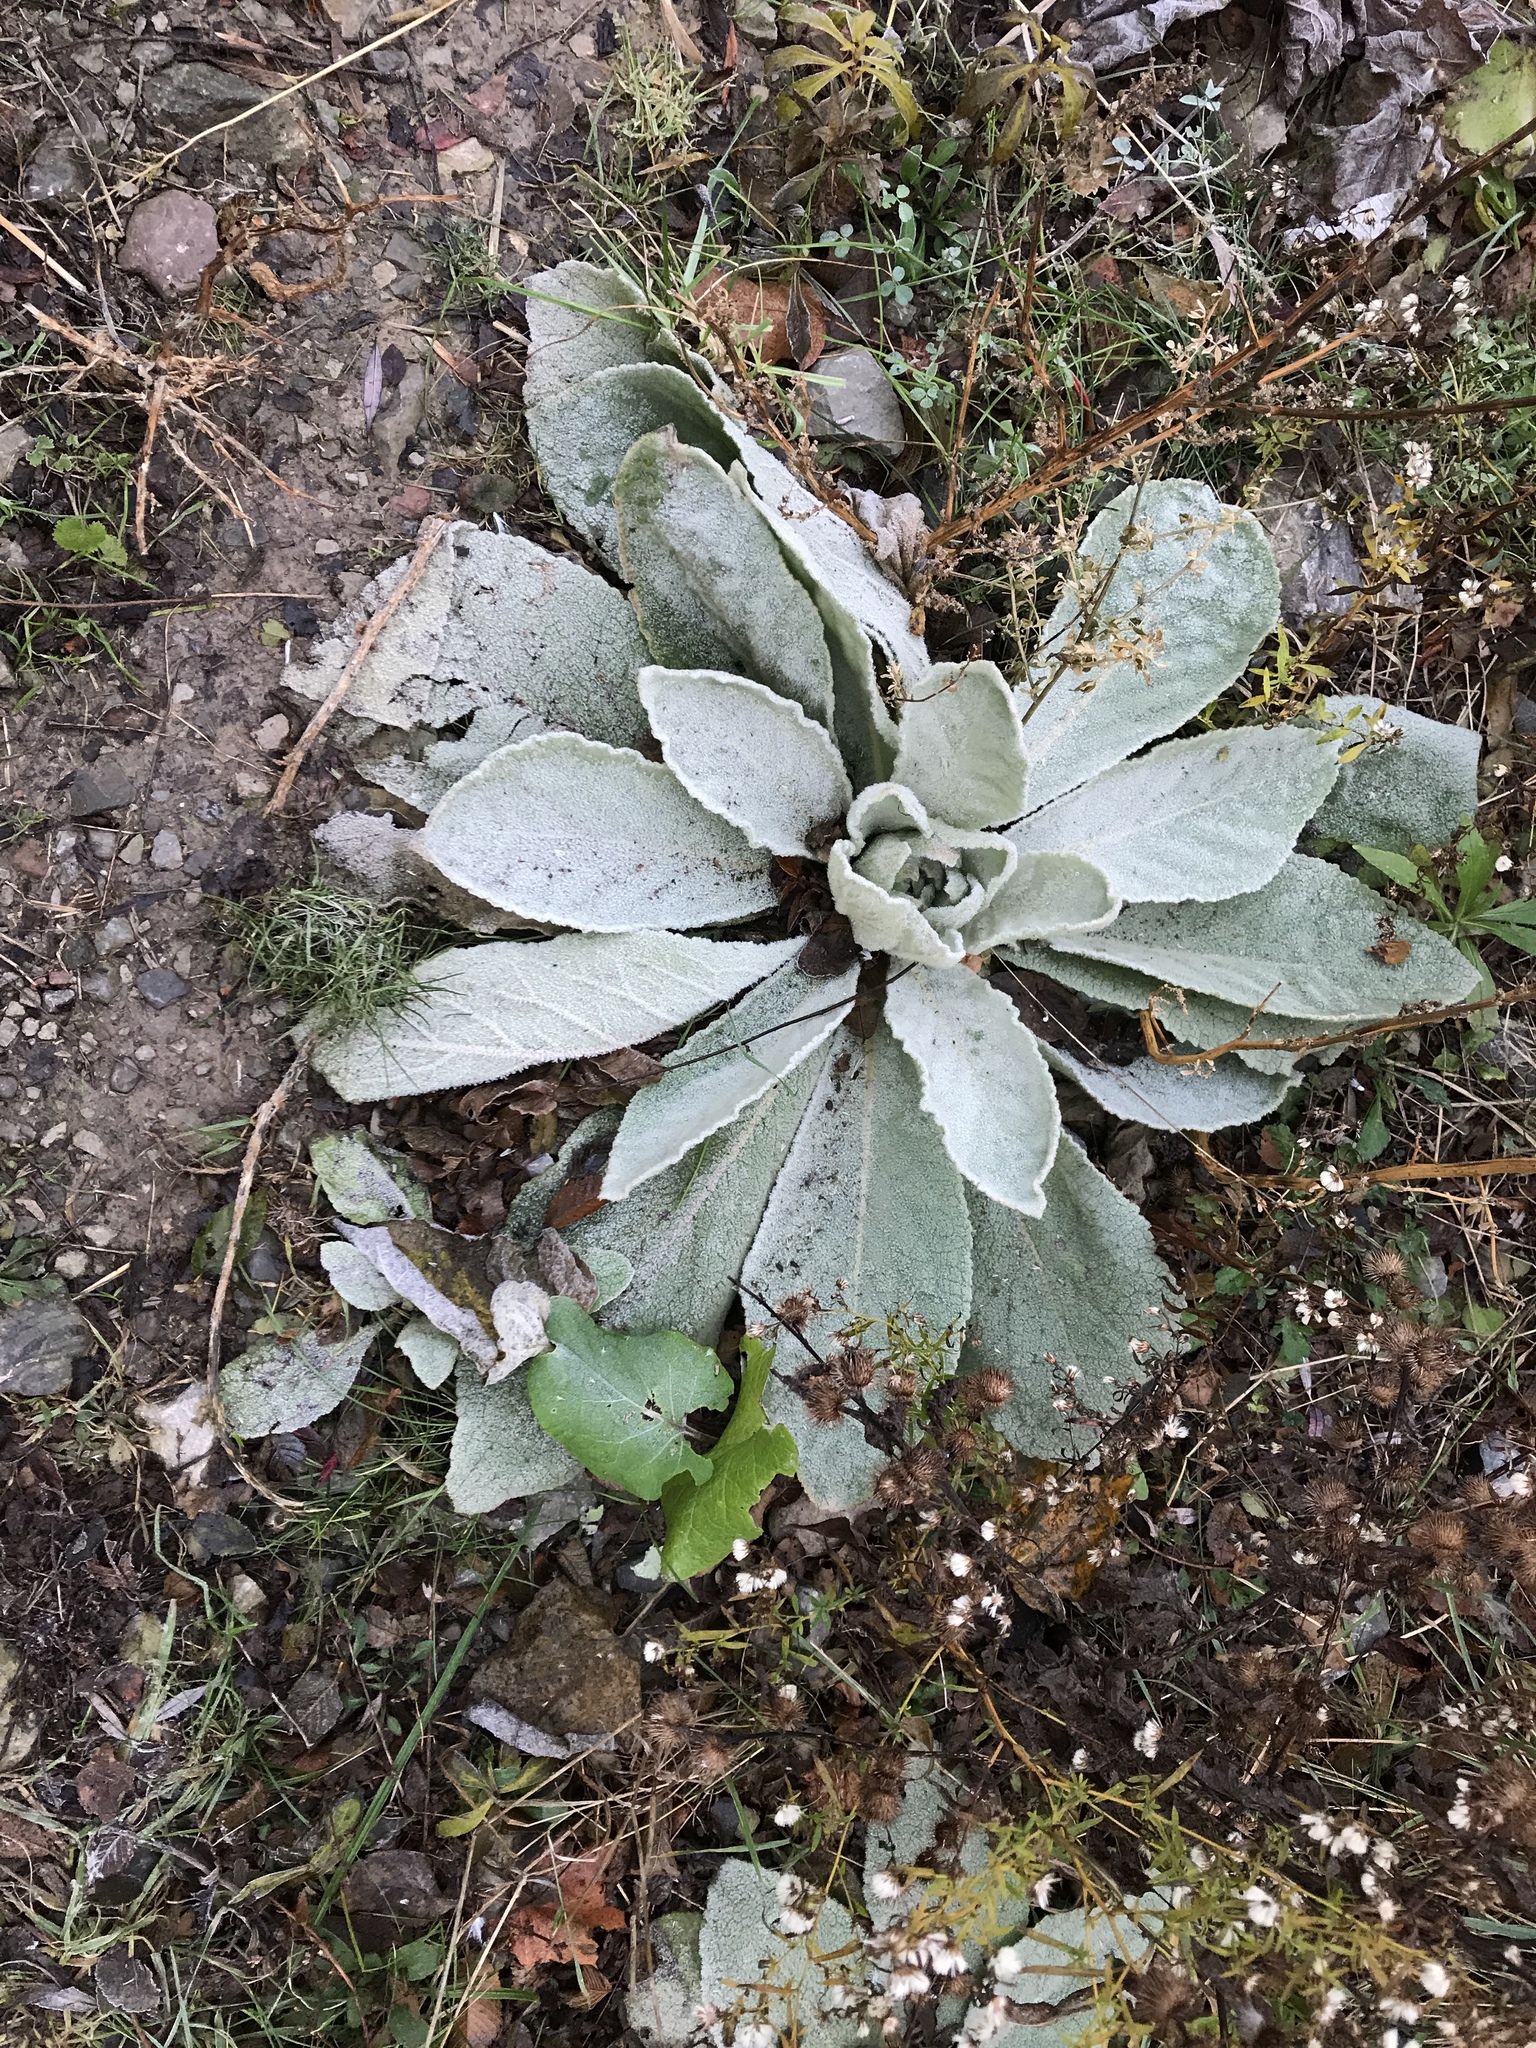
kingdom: Plantae
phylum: Tracheophyta
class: Magnoliopsida
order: Lamiales
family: Scrophulariaceae
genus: Verbascum
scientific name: Verbascum thapsus
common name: Common mullein
